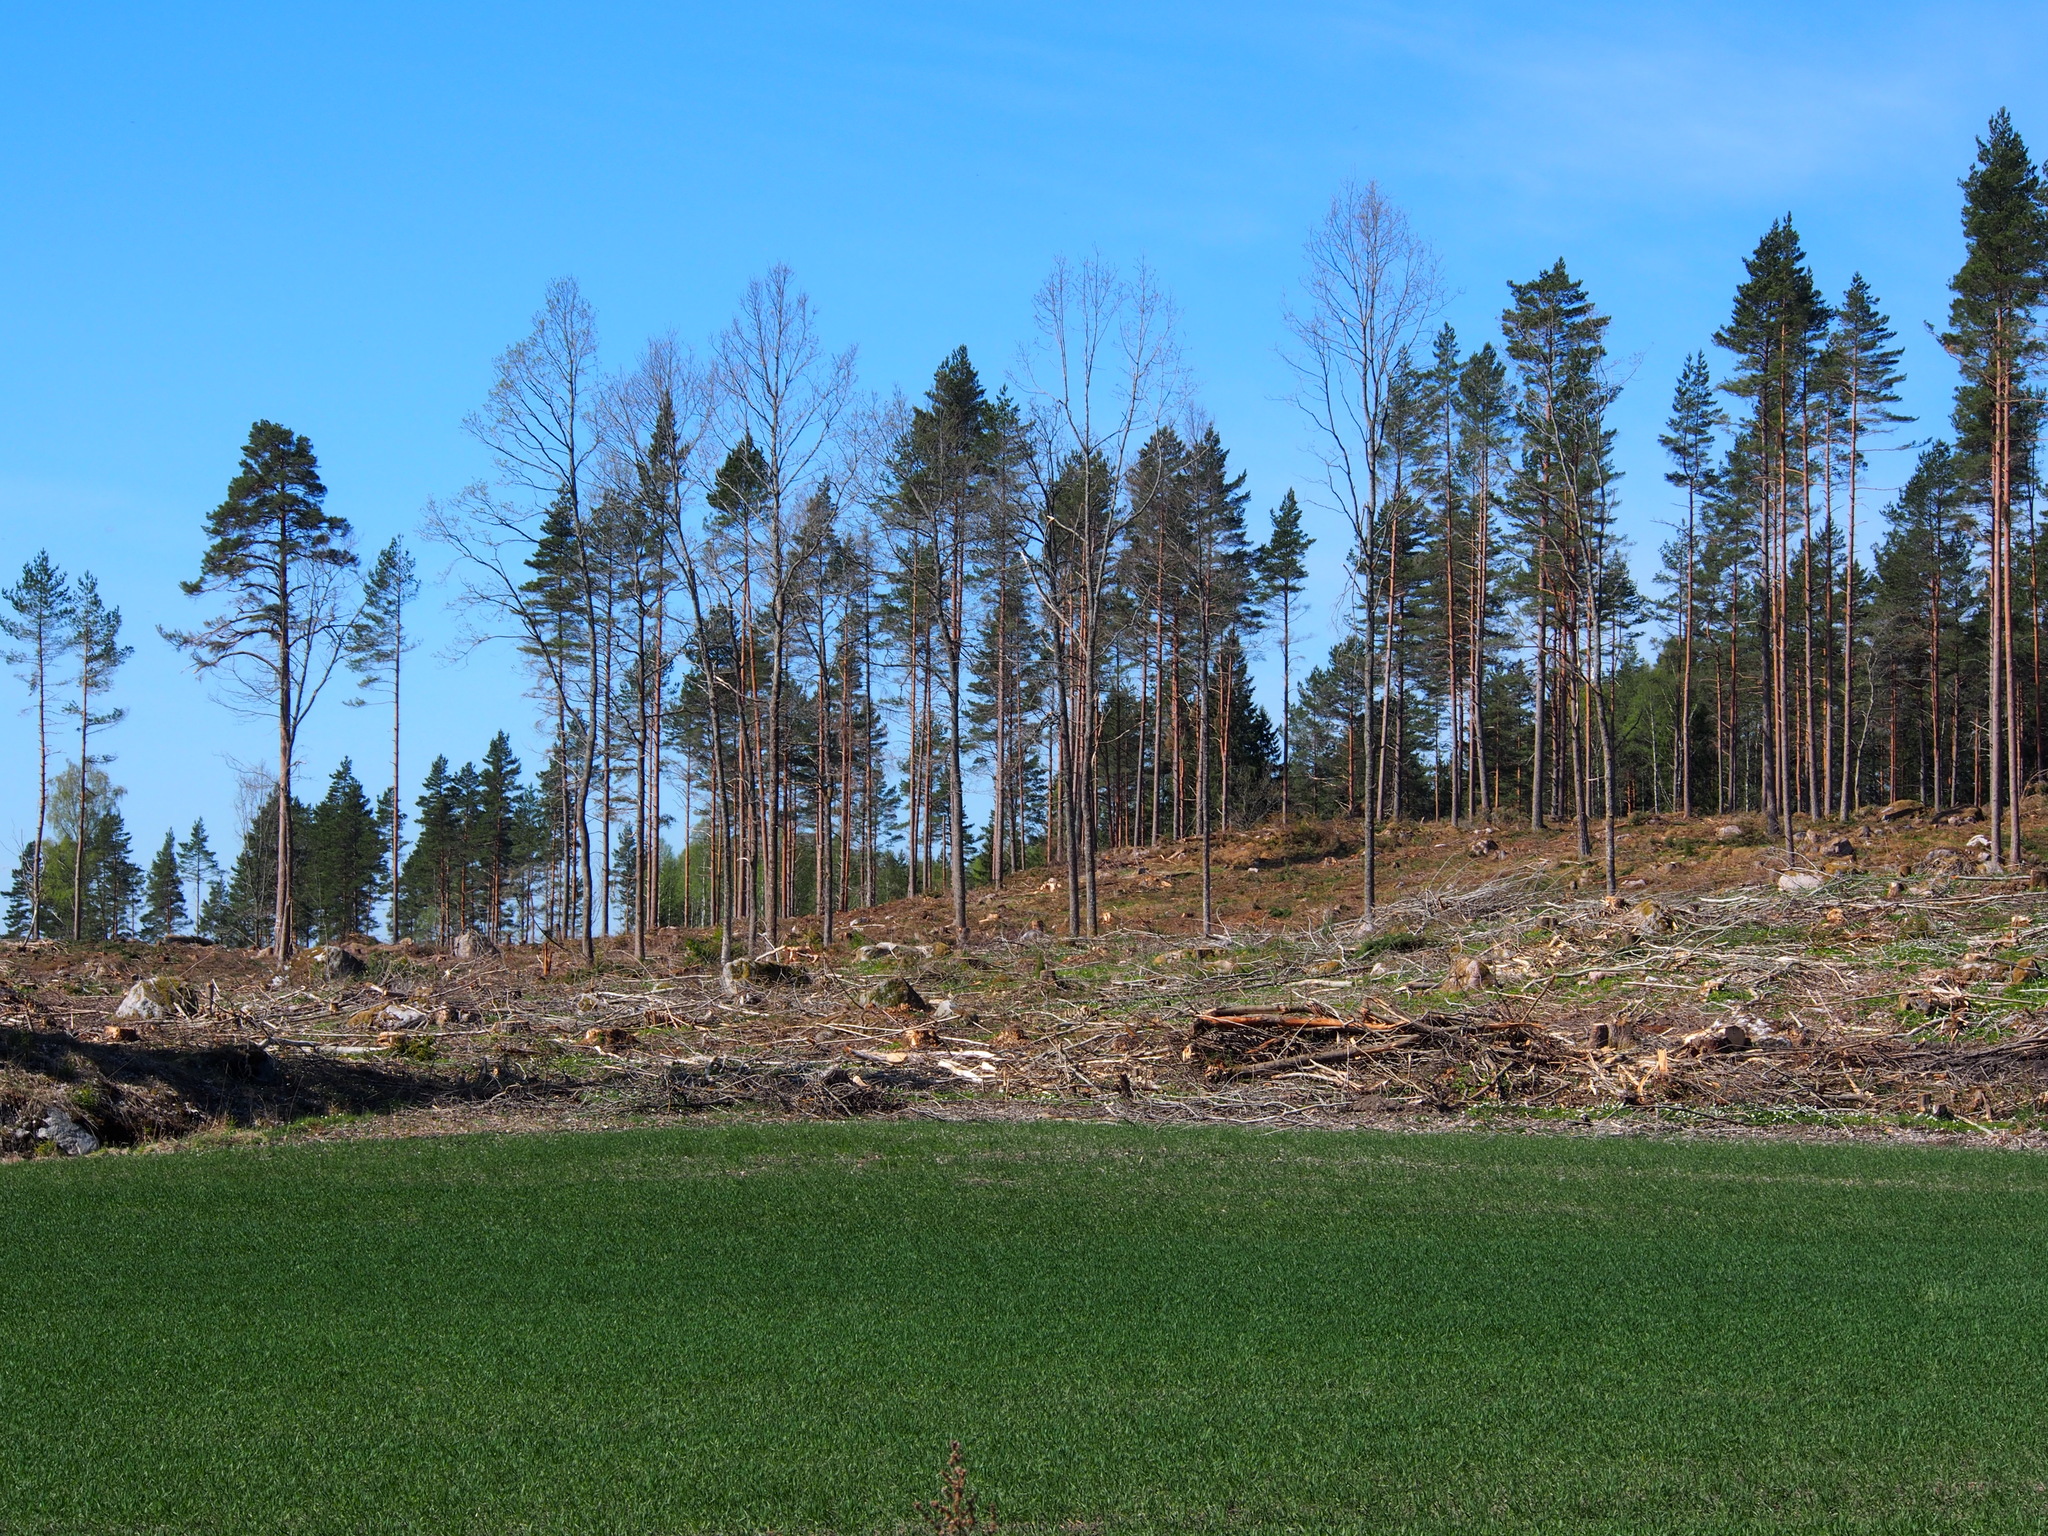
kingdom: Plantae
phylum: Tracheophyta
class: Pinopsida
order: Pinales
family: Pinaceae
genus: Pinus
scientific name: Pinus sylvestris
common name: Scots pine
